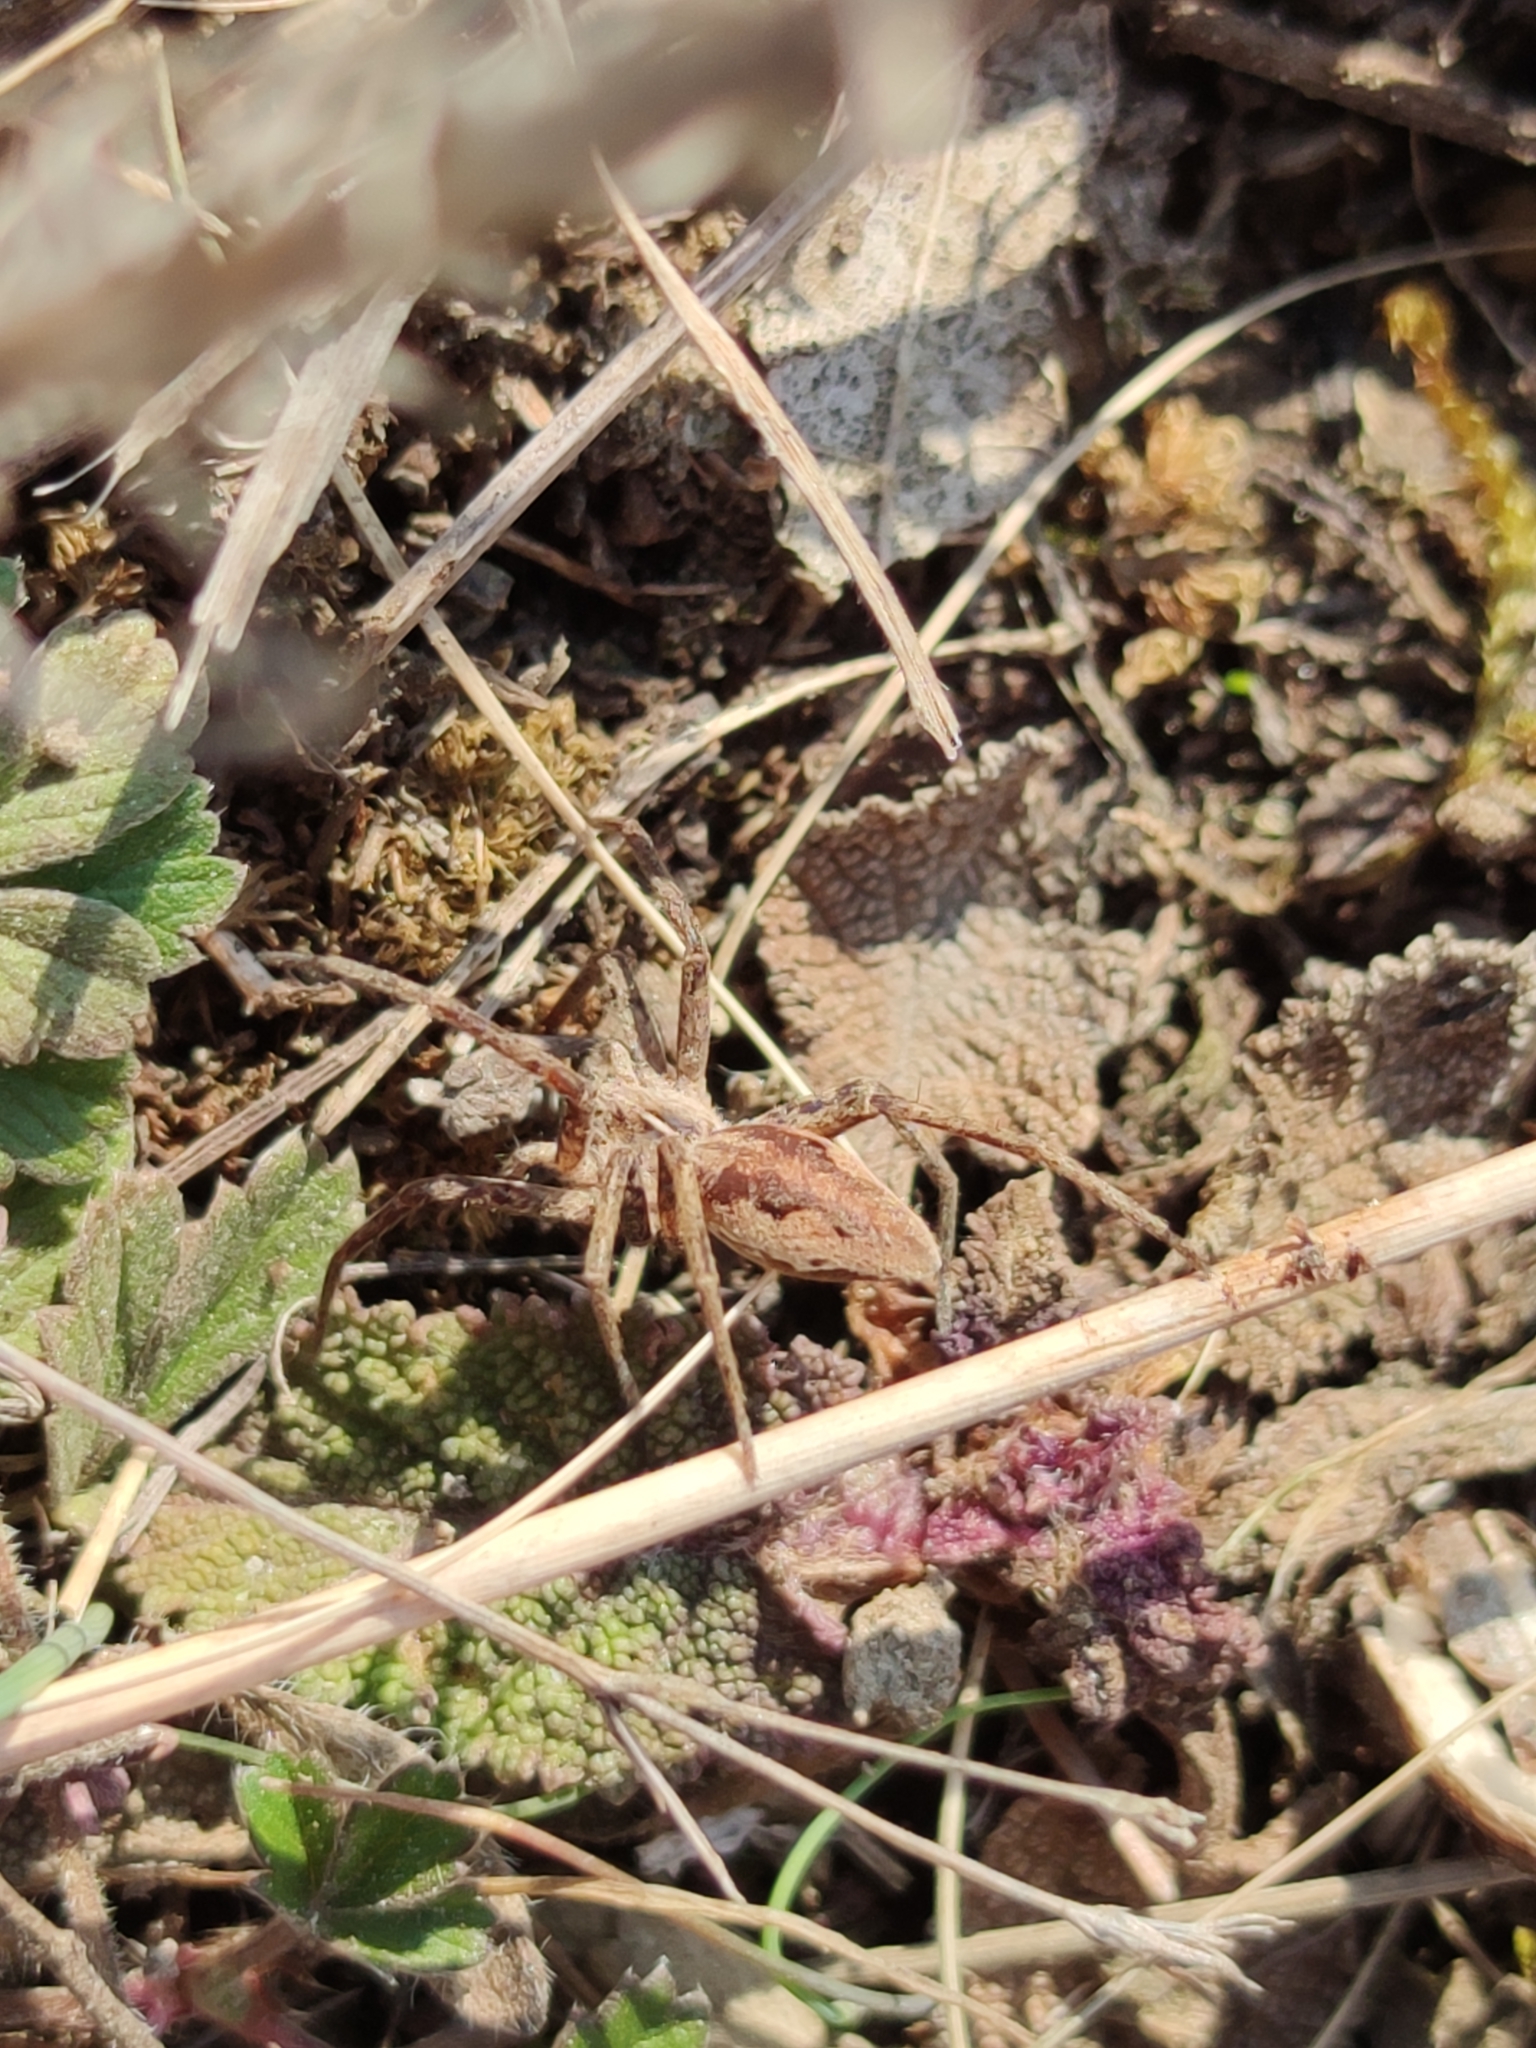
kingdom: Animalia
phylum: Arthropoda
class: Arachnida
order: Araneae
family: Pisauridae
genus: Pisaura
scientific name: Pisaura mirabilis
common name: Tent spider
